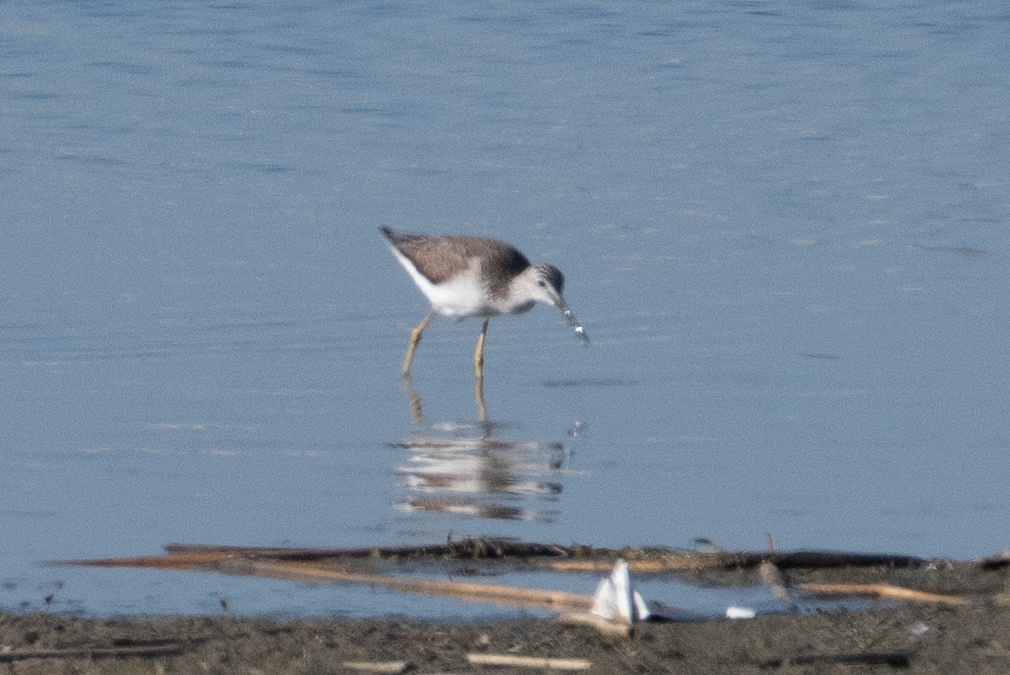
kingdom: Animalia
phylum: Chordata
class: Aves
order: Charadriiformes
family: Scolopacidae
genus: Tringa
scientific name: Tringa melanoleuca
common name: Greater yellowlegs
